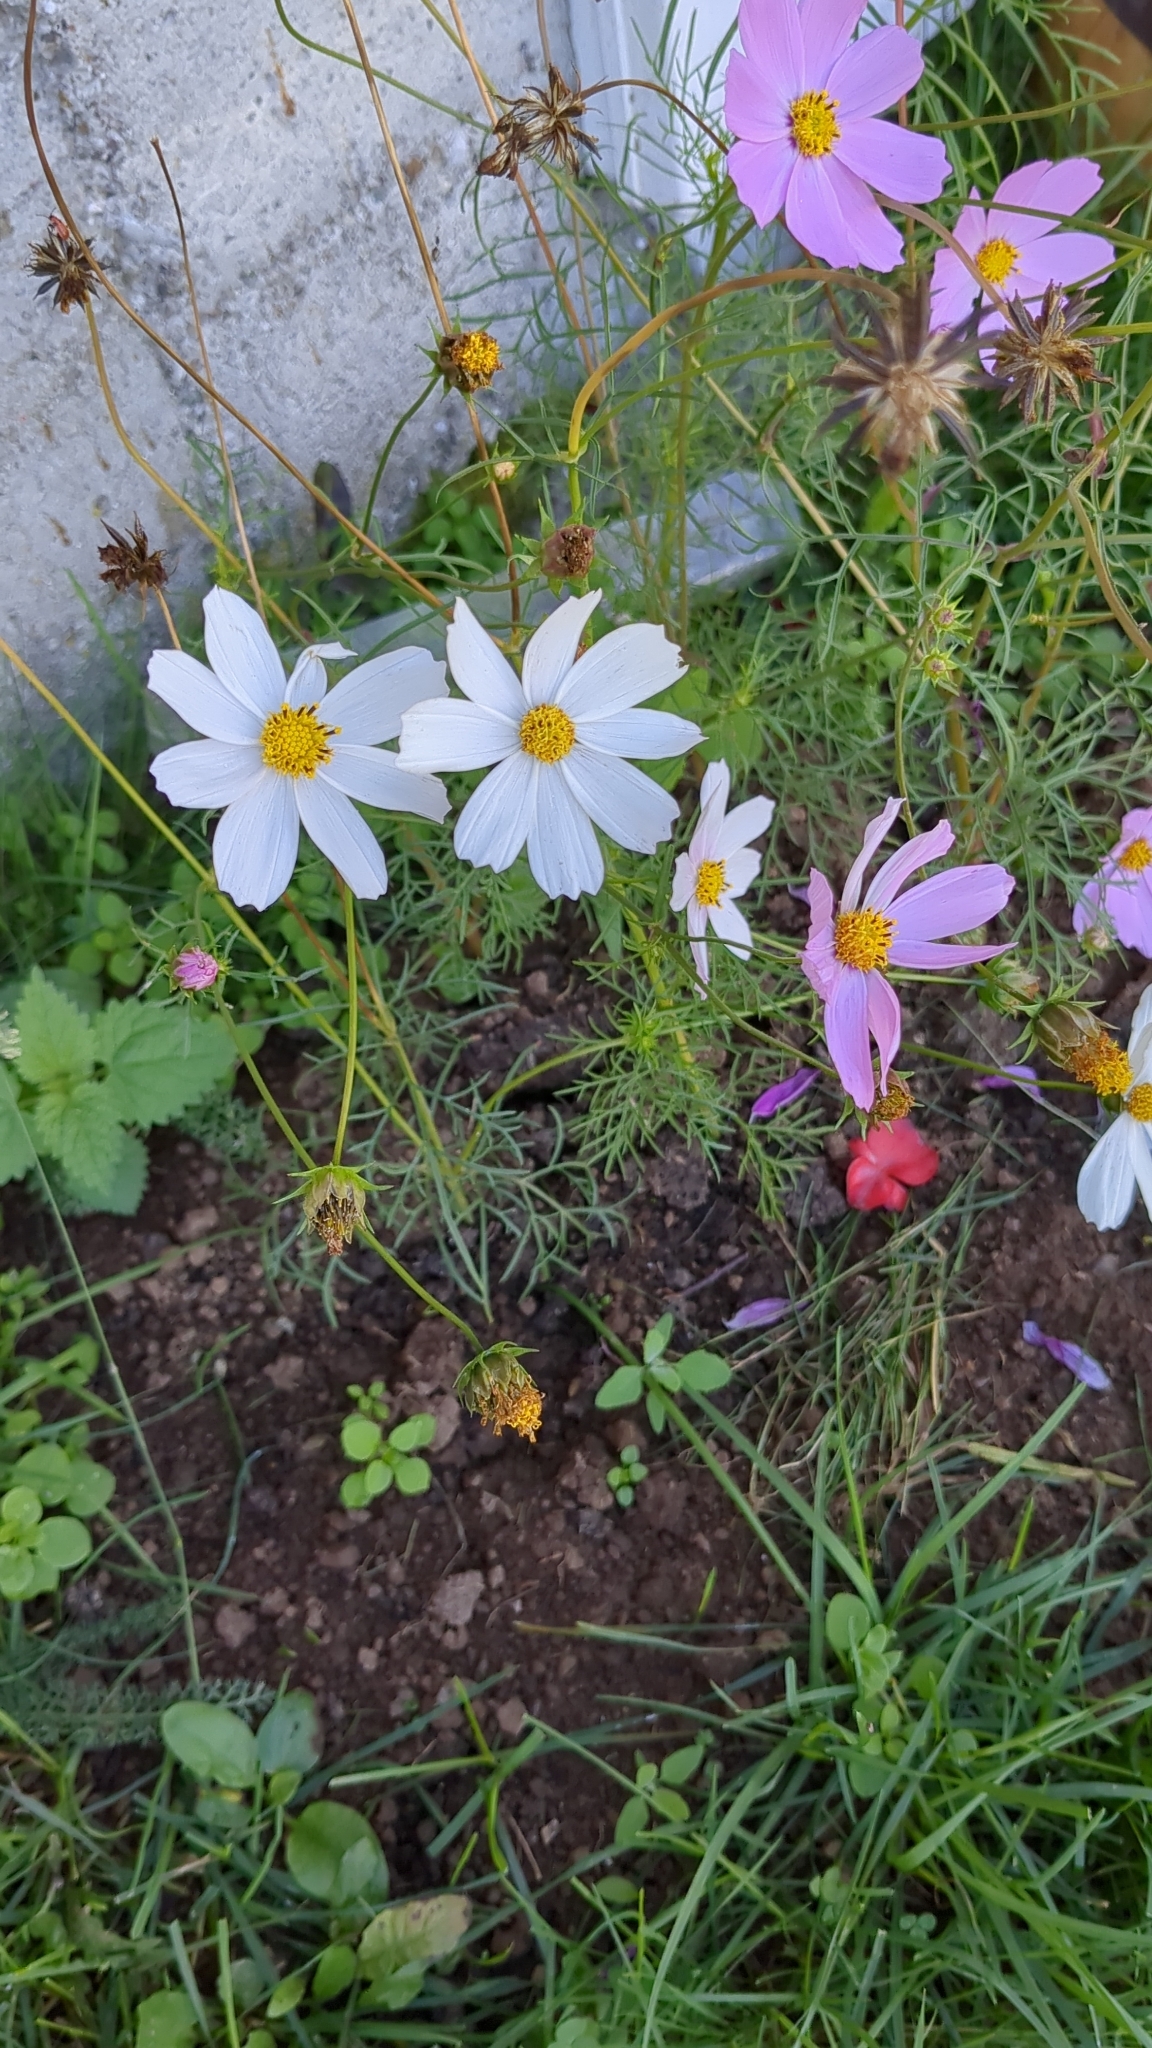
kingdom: Plantae
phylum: Tracheophyta
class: Magnoliopsida
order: Asterales
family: Asteraceae
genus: Cosmos
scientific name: Cosmos bipinnatus
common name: Garden cosmos
